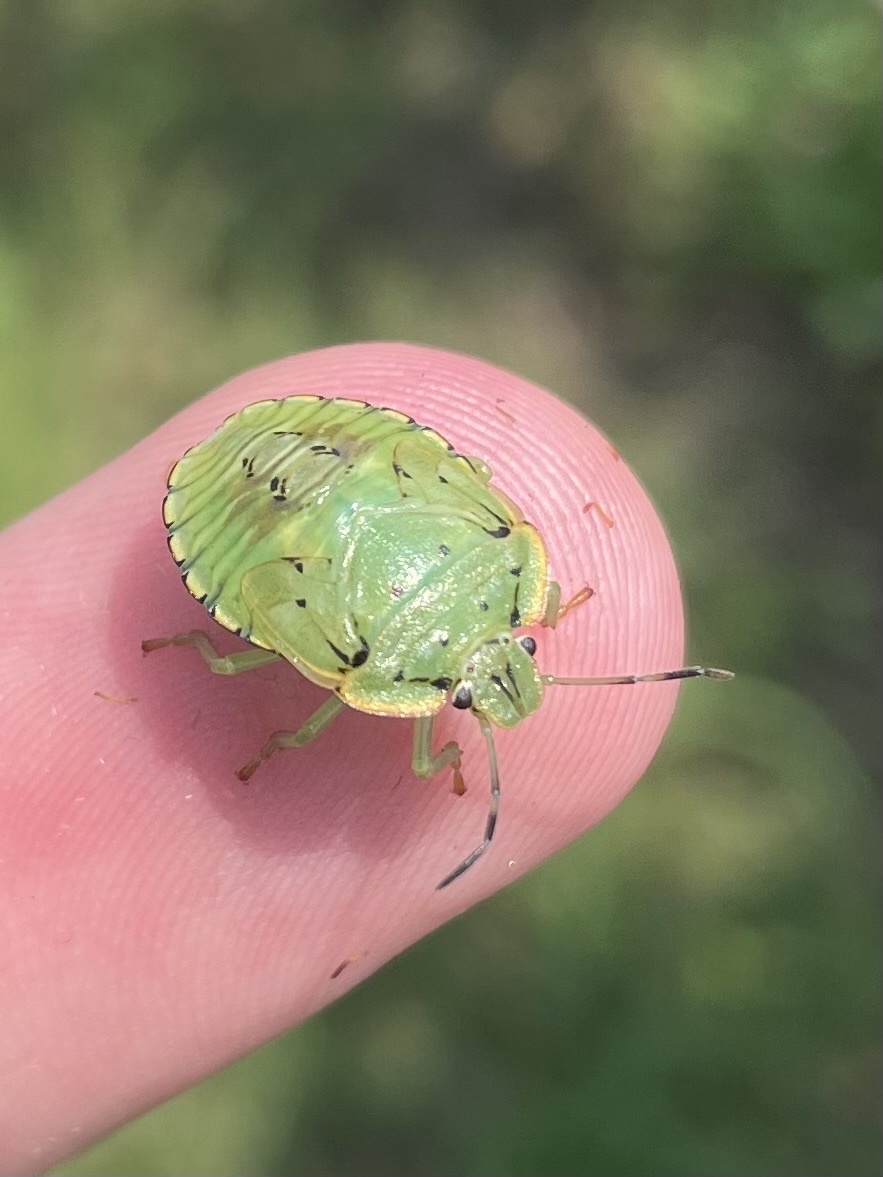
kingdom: Animalia
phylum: Arthropoda
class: Insecta
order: Hemiptera
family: Pentatomidae
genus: Chinavia
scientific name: Chinavia hilaris
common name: Green stink bug
